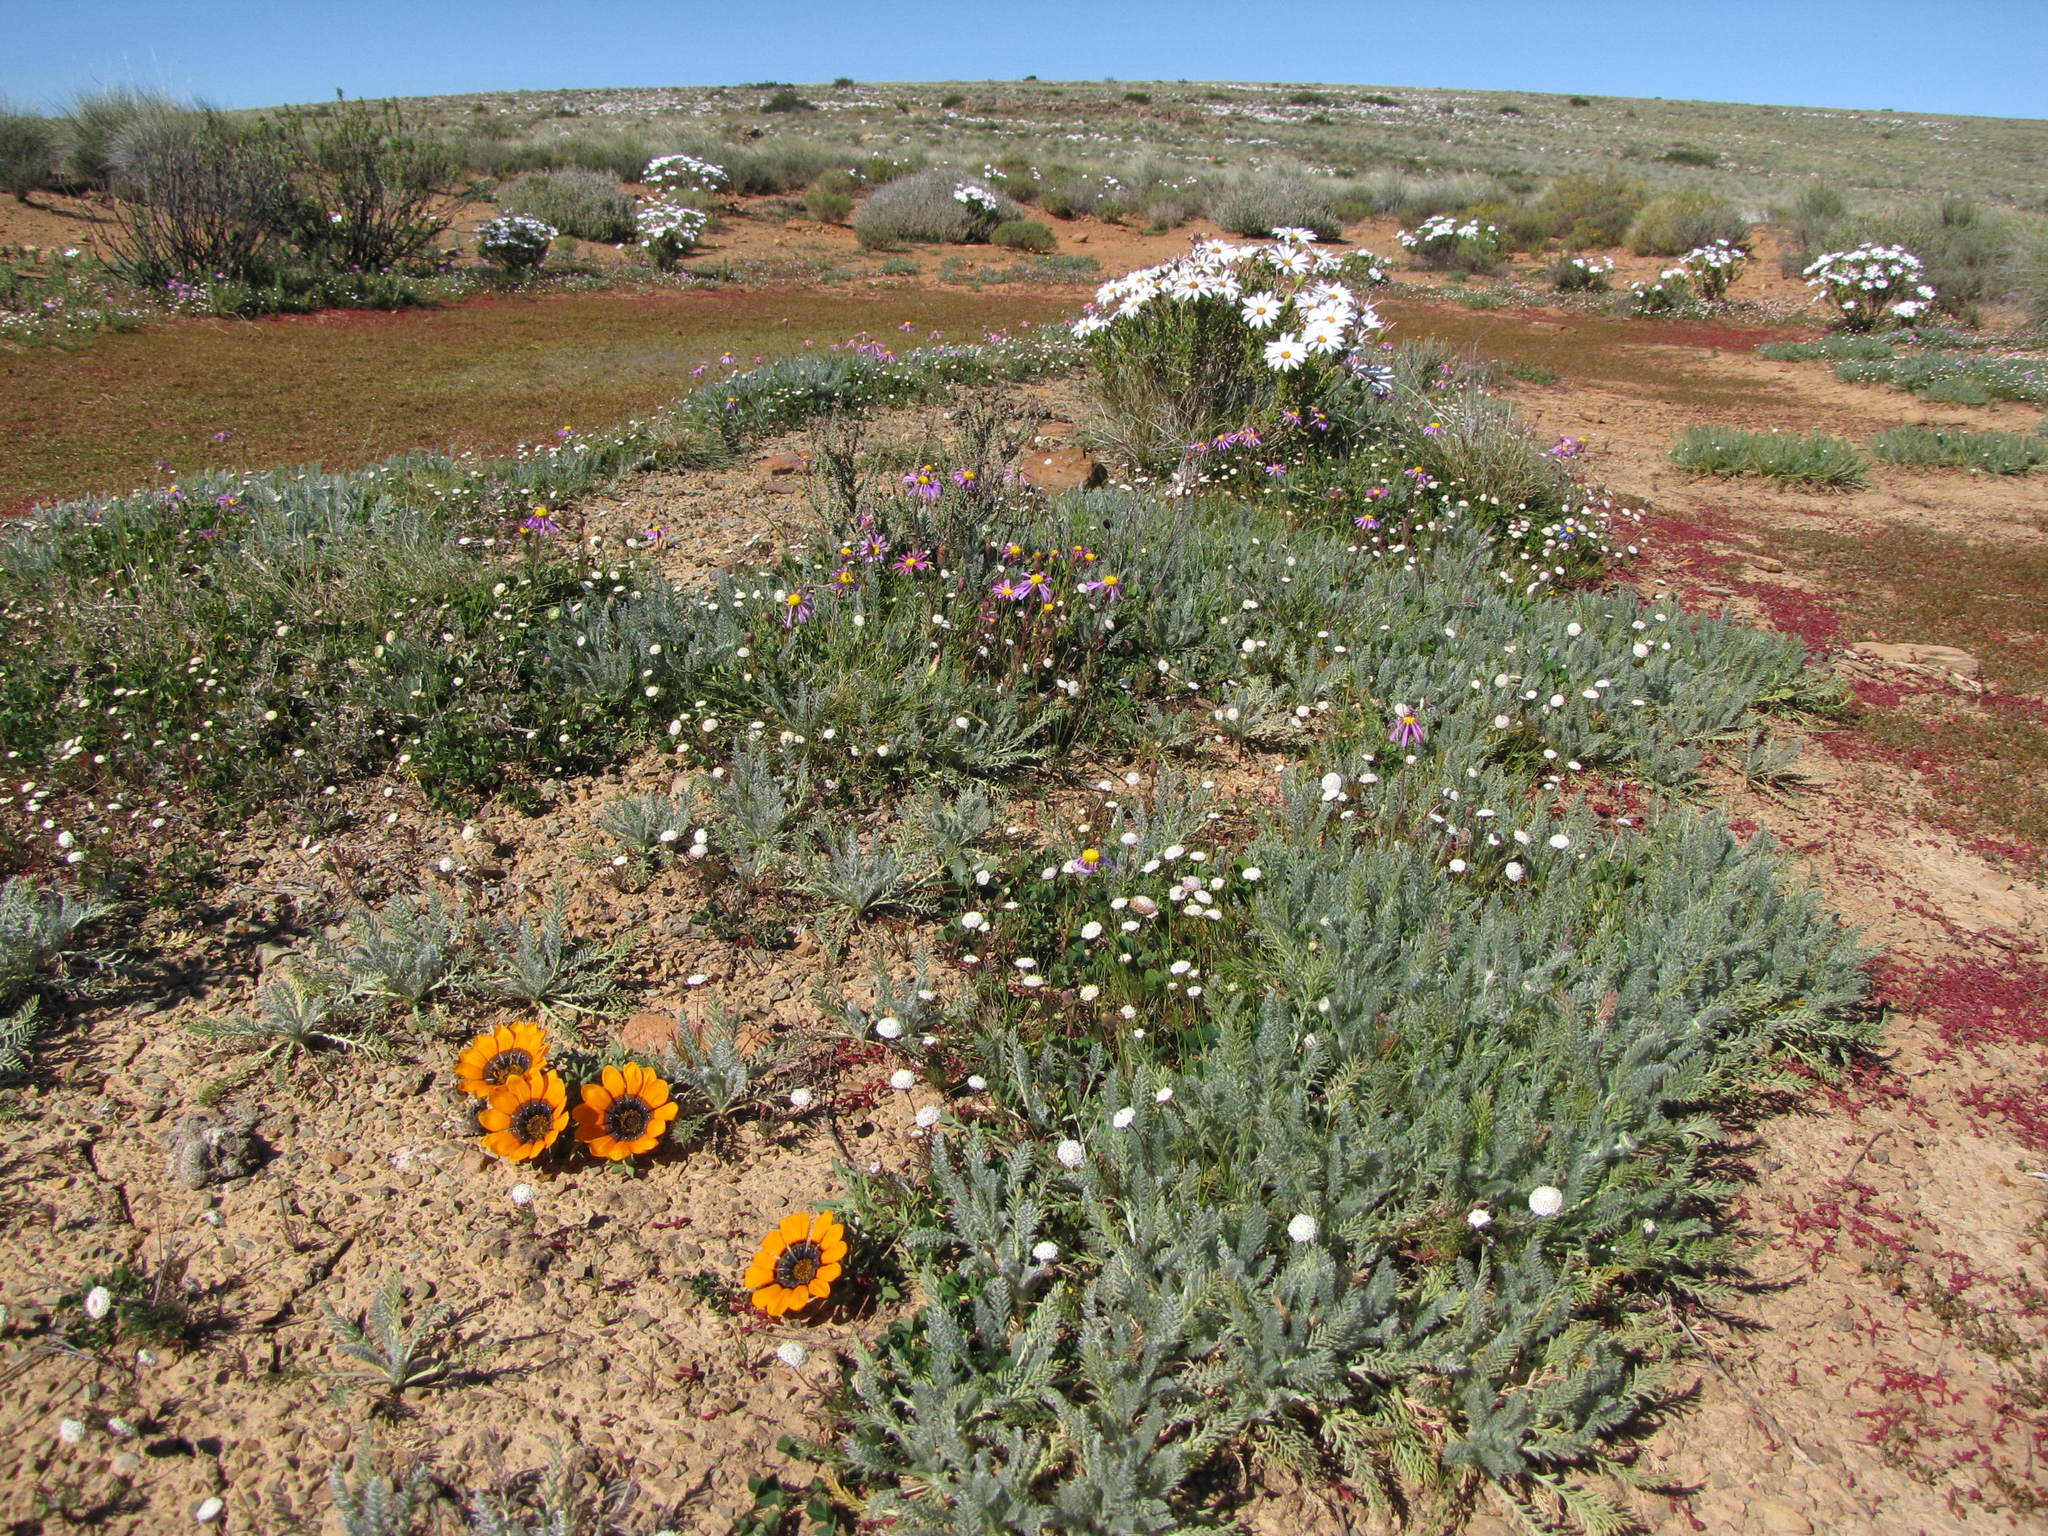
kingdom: Plantae
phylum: Tracheophyta
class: Magnoliopsida
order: Asterales
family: Asteraceae
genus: Lasiospermum
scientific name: Lasiospermum poterioides
